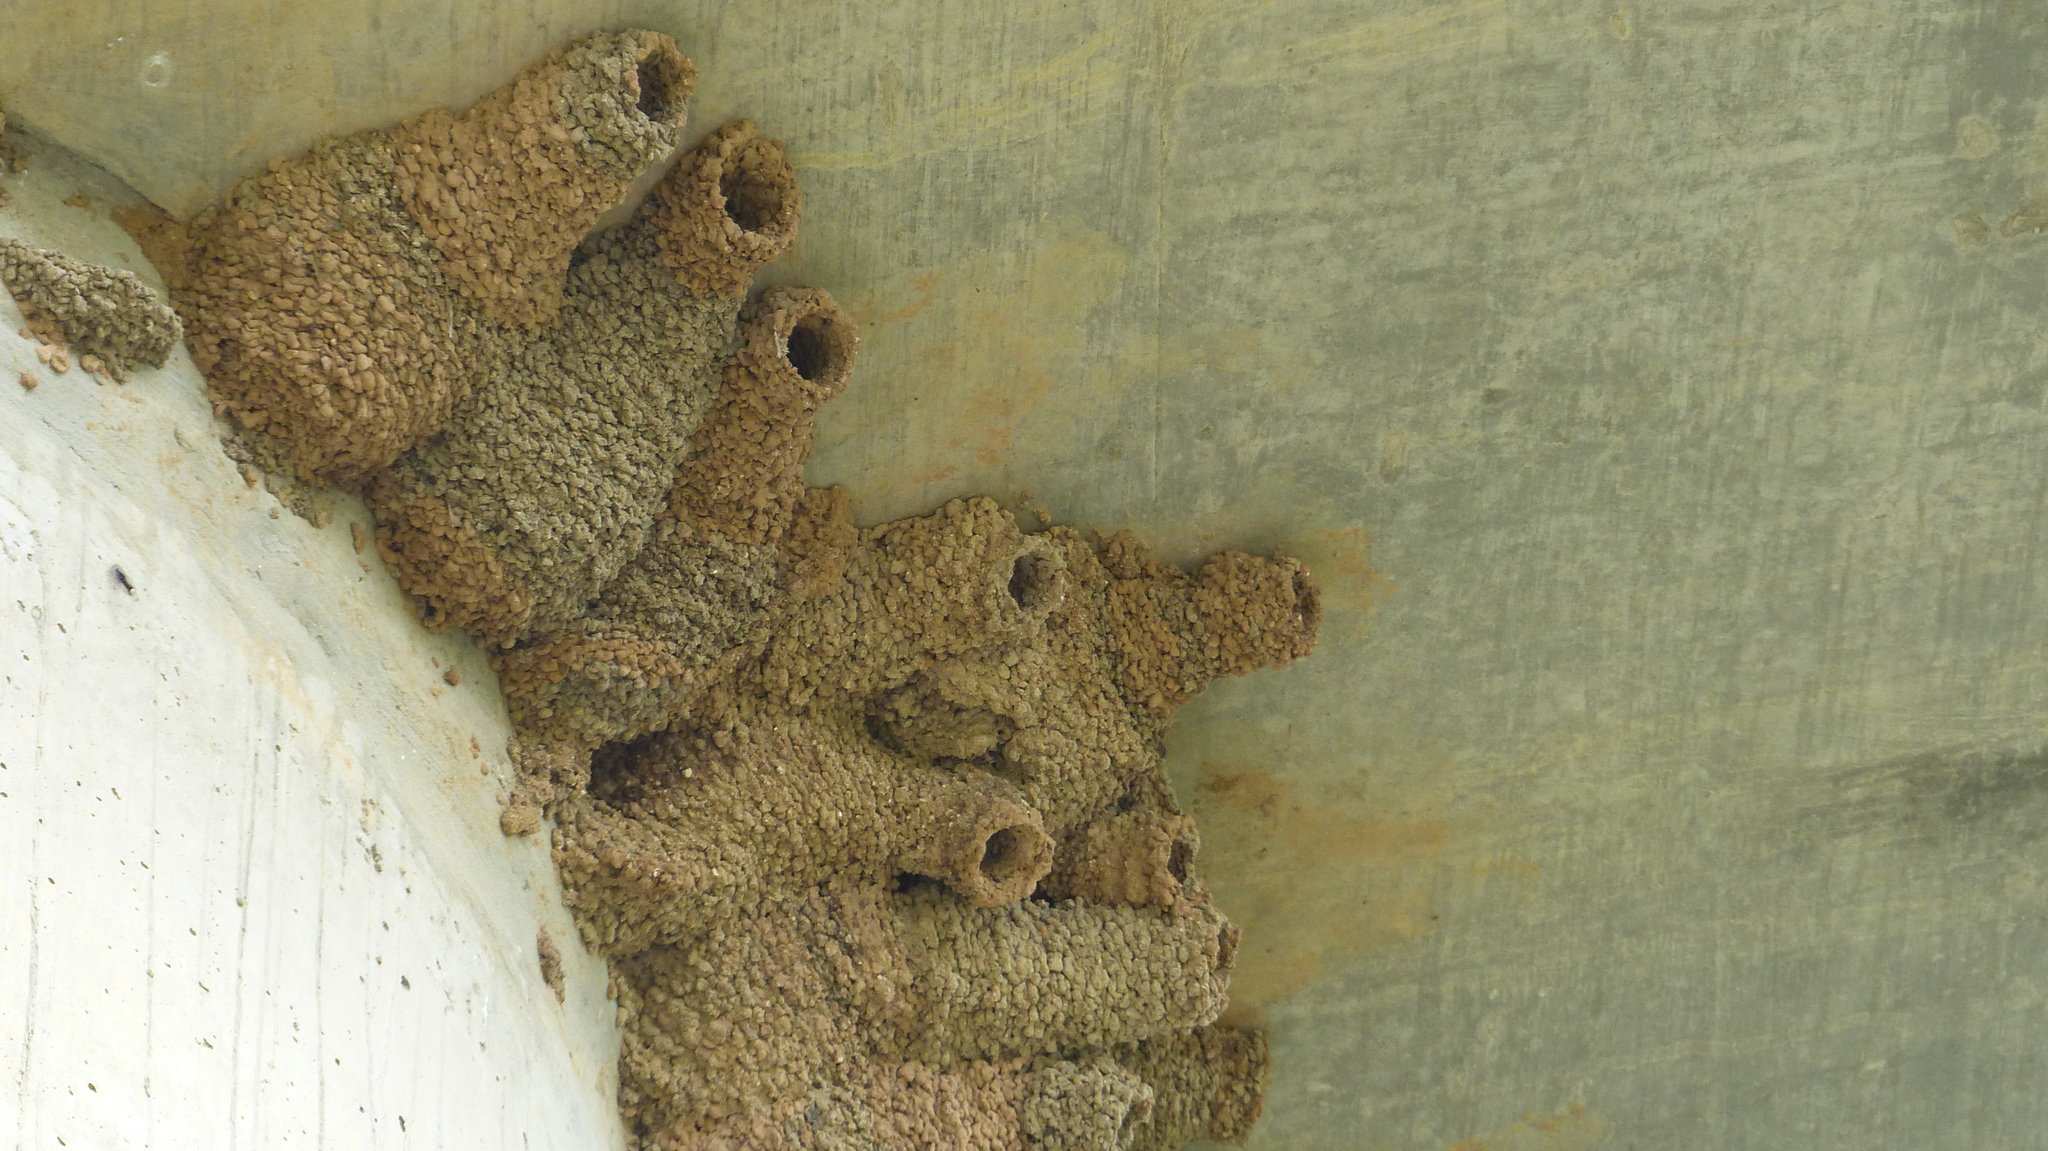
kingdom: Animalia
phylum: Chordata
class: Aves
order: Passeriformes
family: Hirundinidae
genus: Petrochelidon
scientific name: Petrochelidon ariel
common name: Fairy martin
